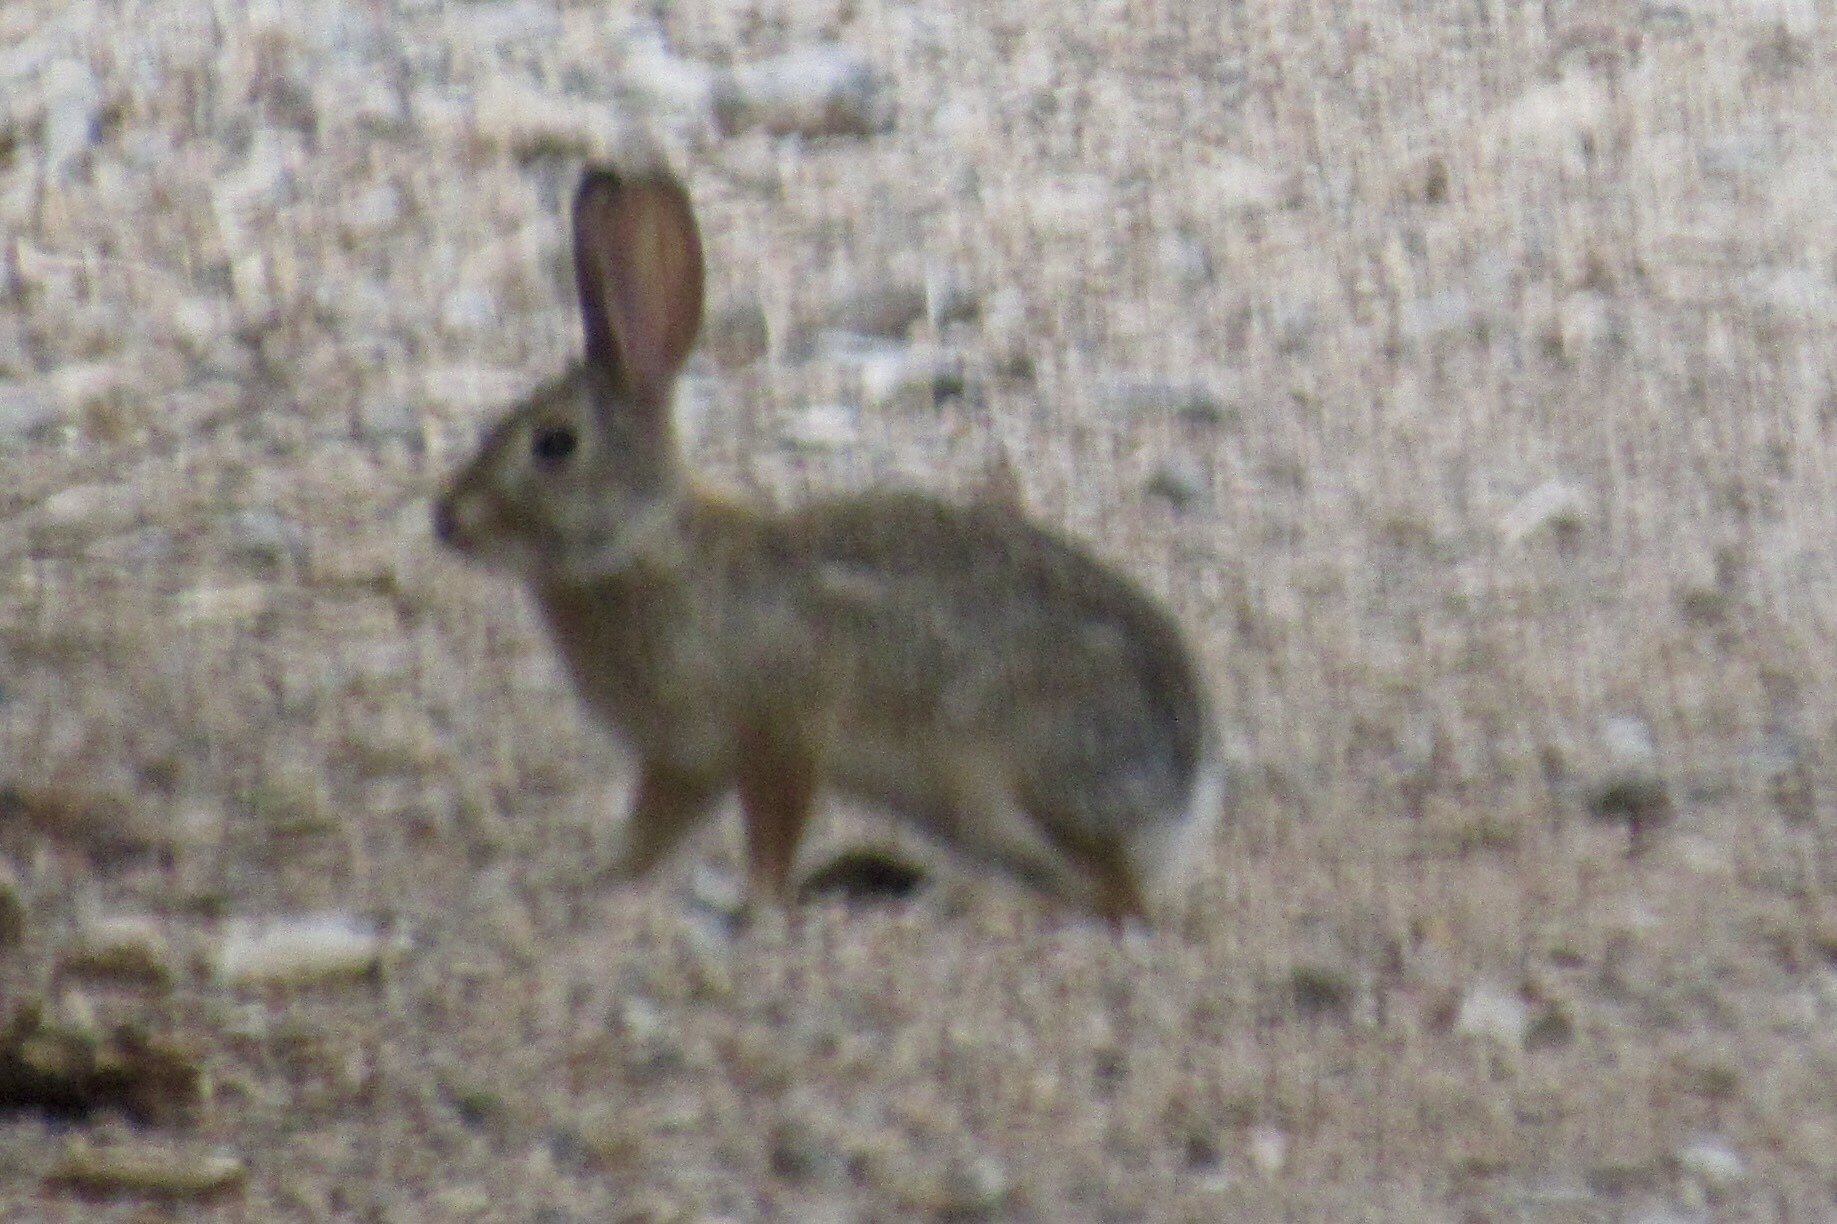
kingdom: Animalia
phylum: Chordata
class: Mammalia
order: Lagomorpha
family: Leporidae
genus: Sylvilagus
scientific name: Sylvilagus audubonii
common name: Desert cottontail
